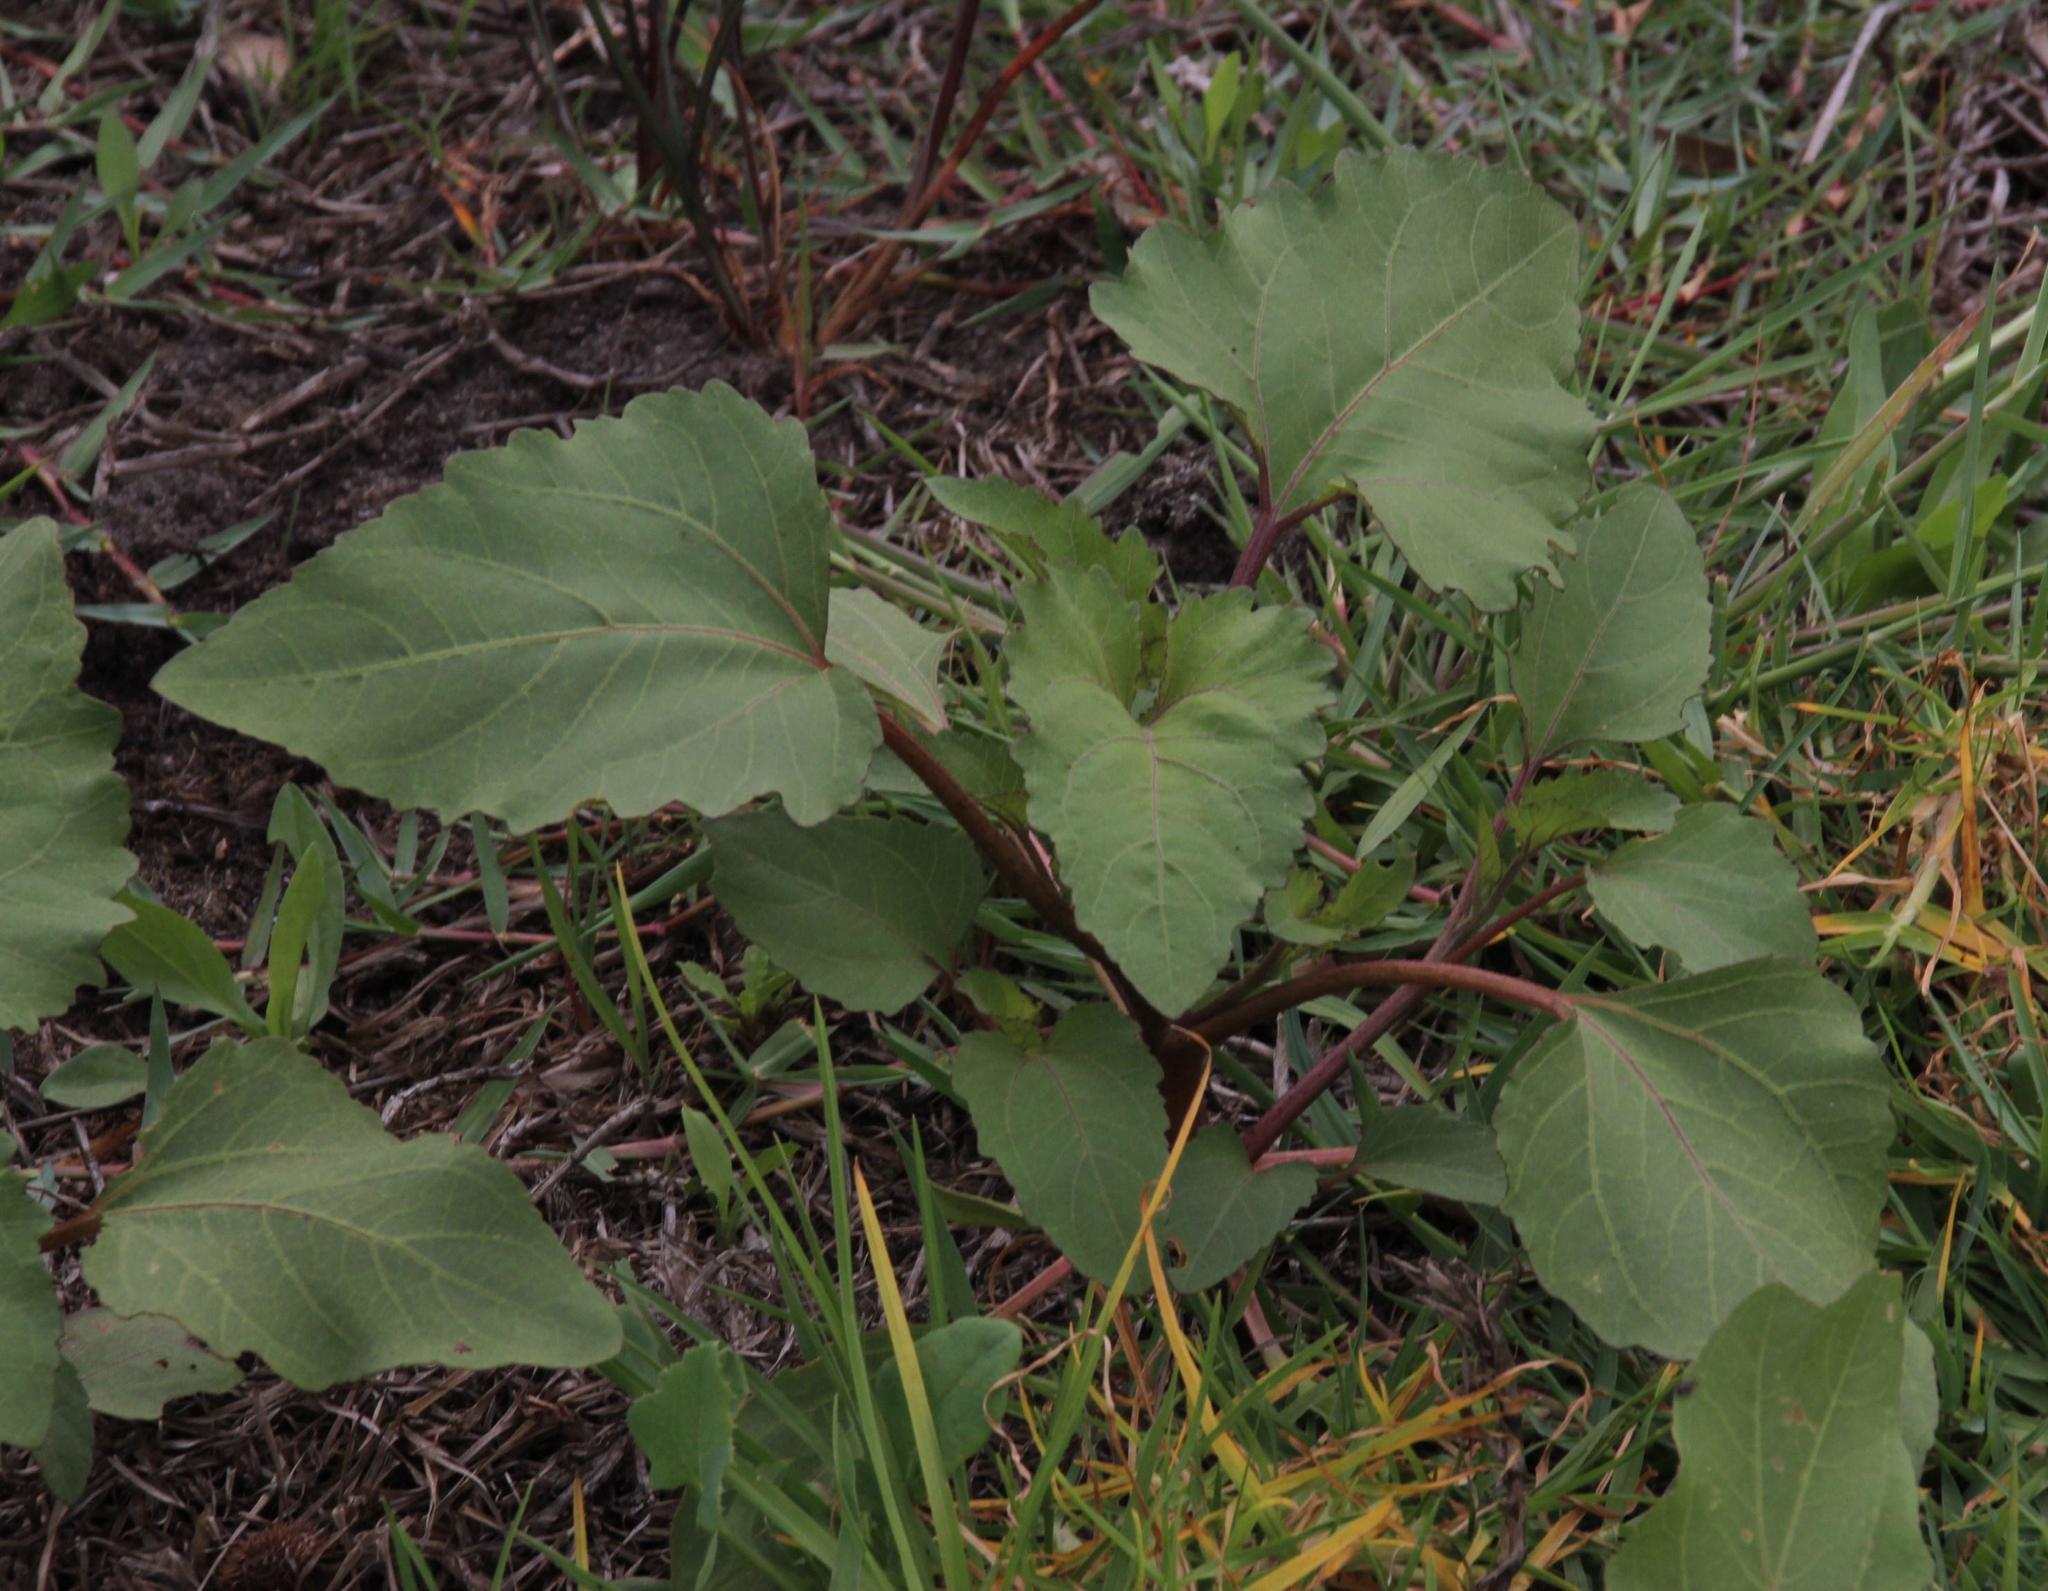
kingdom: Plantae
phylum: Tracheophyta
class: Magnoliopsida
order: Asterales
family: Asteraceae
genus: Xanthium
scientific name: Xanthium strumarium
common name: Rough cocklebur
